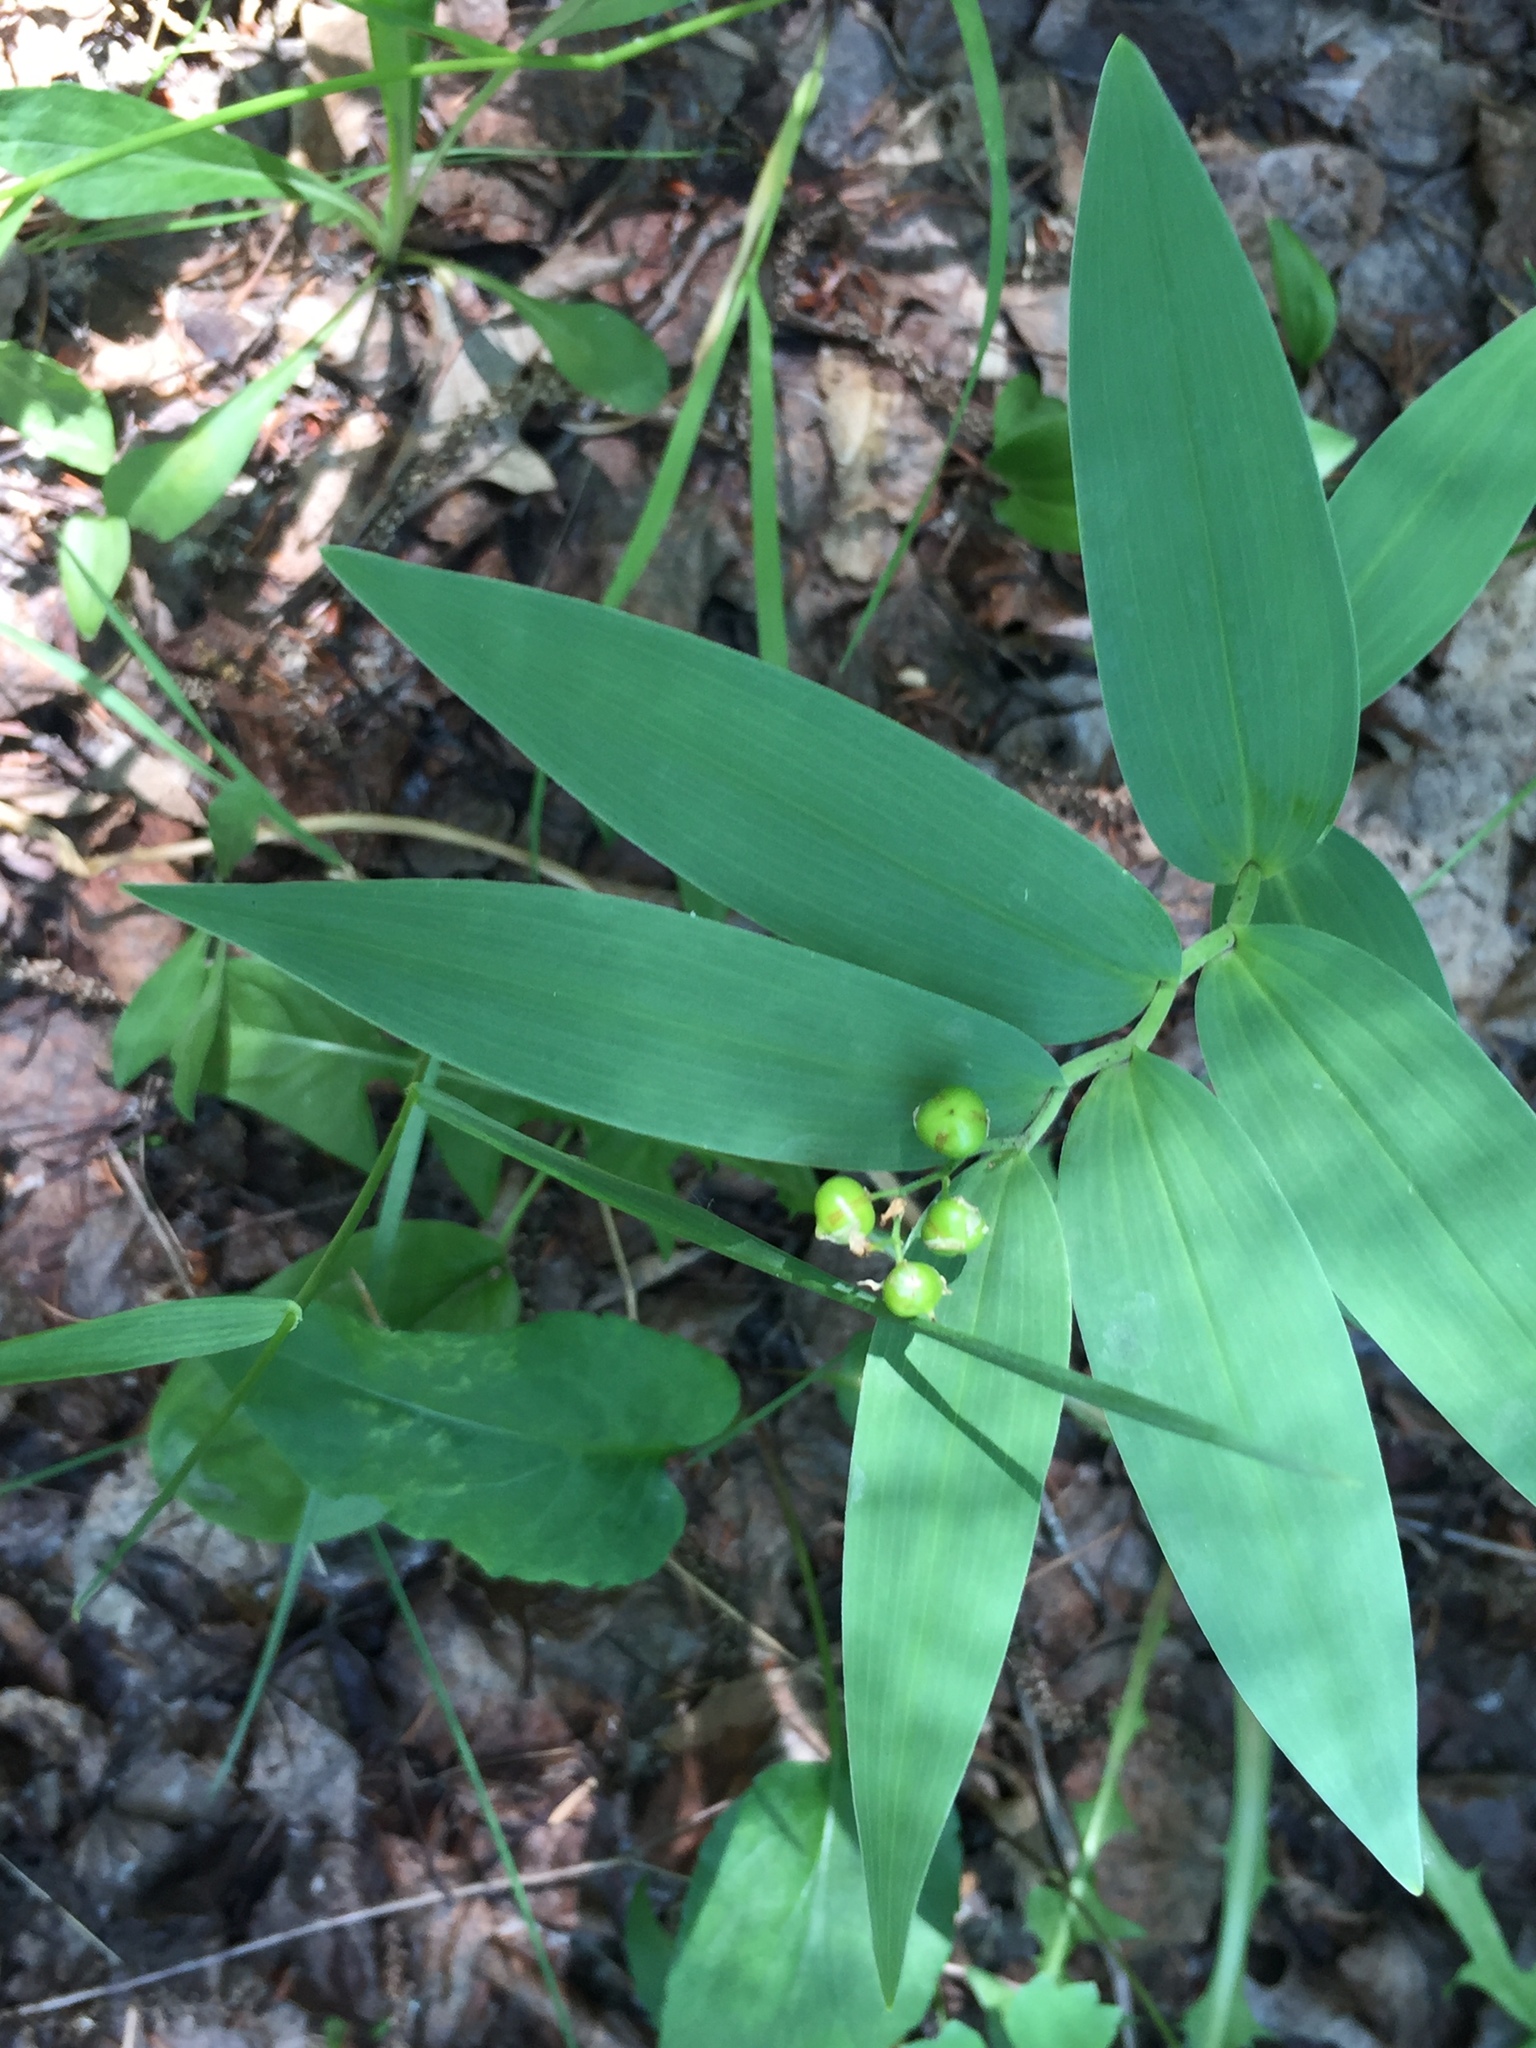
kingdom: Plantae
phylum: Tracheophyta
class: Liliopsida
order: Asparagales
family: Asparagaceae
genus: Maianthemum
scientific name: Maianthemum stellatum
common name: Little false solomon's seal
